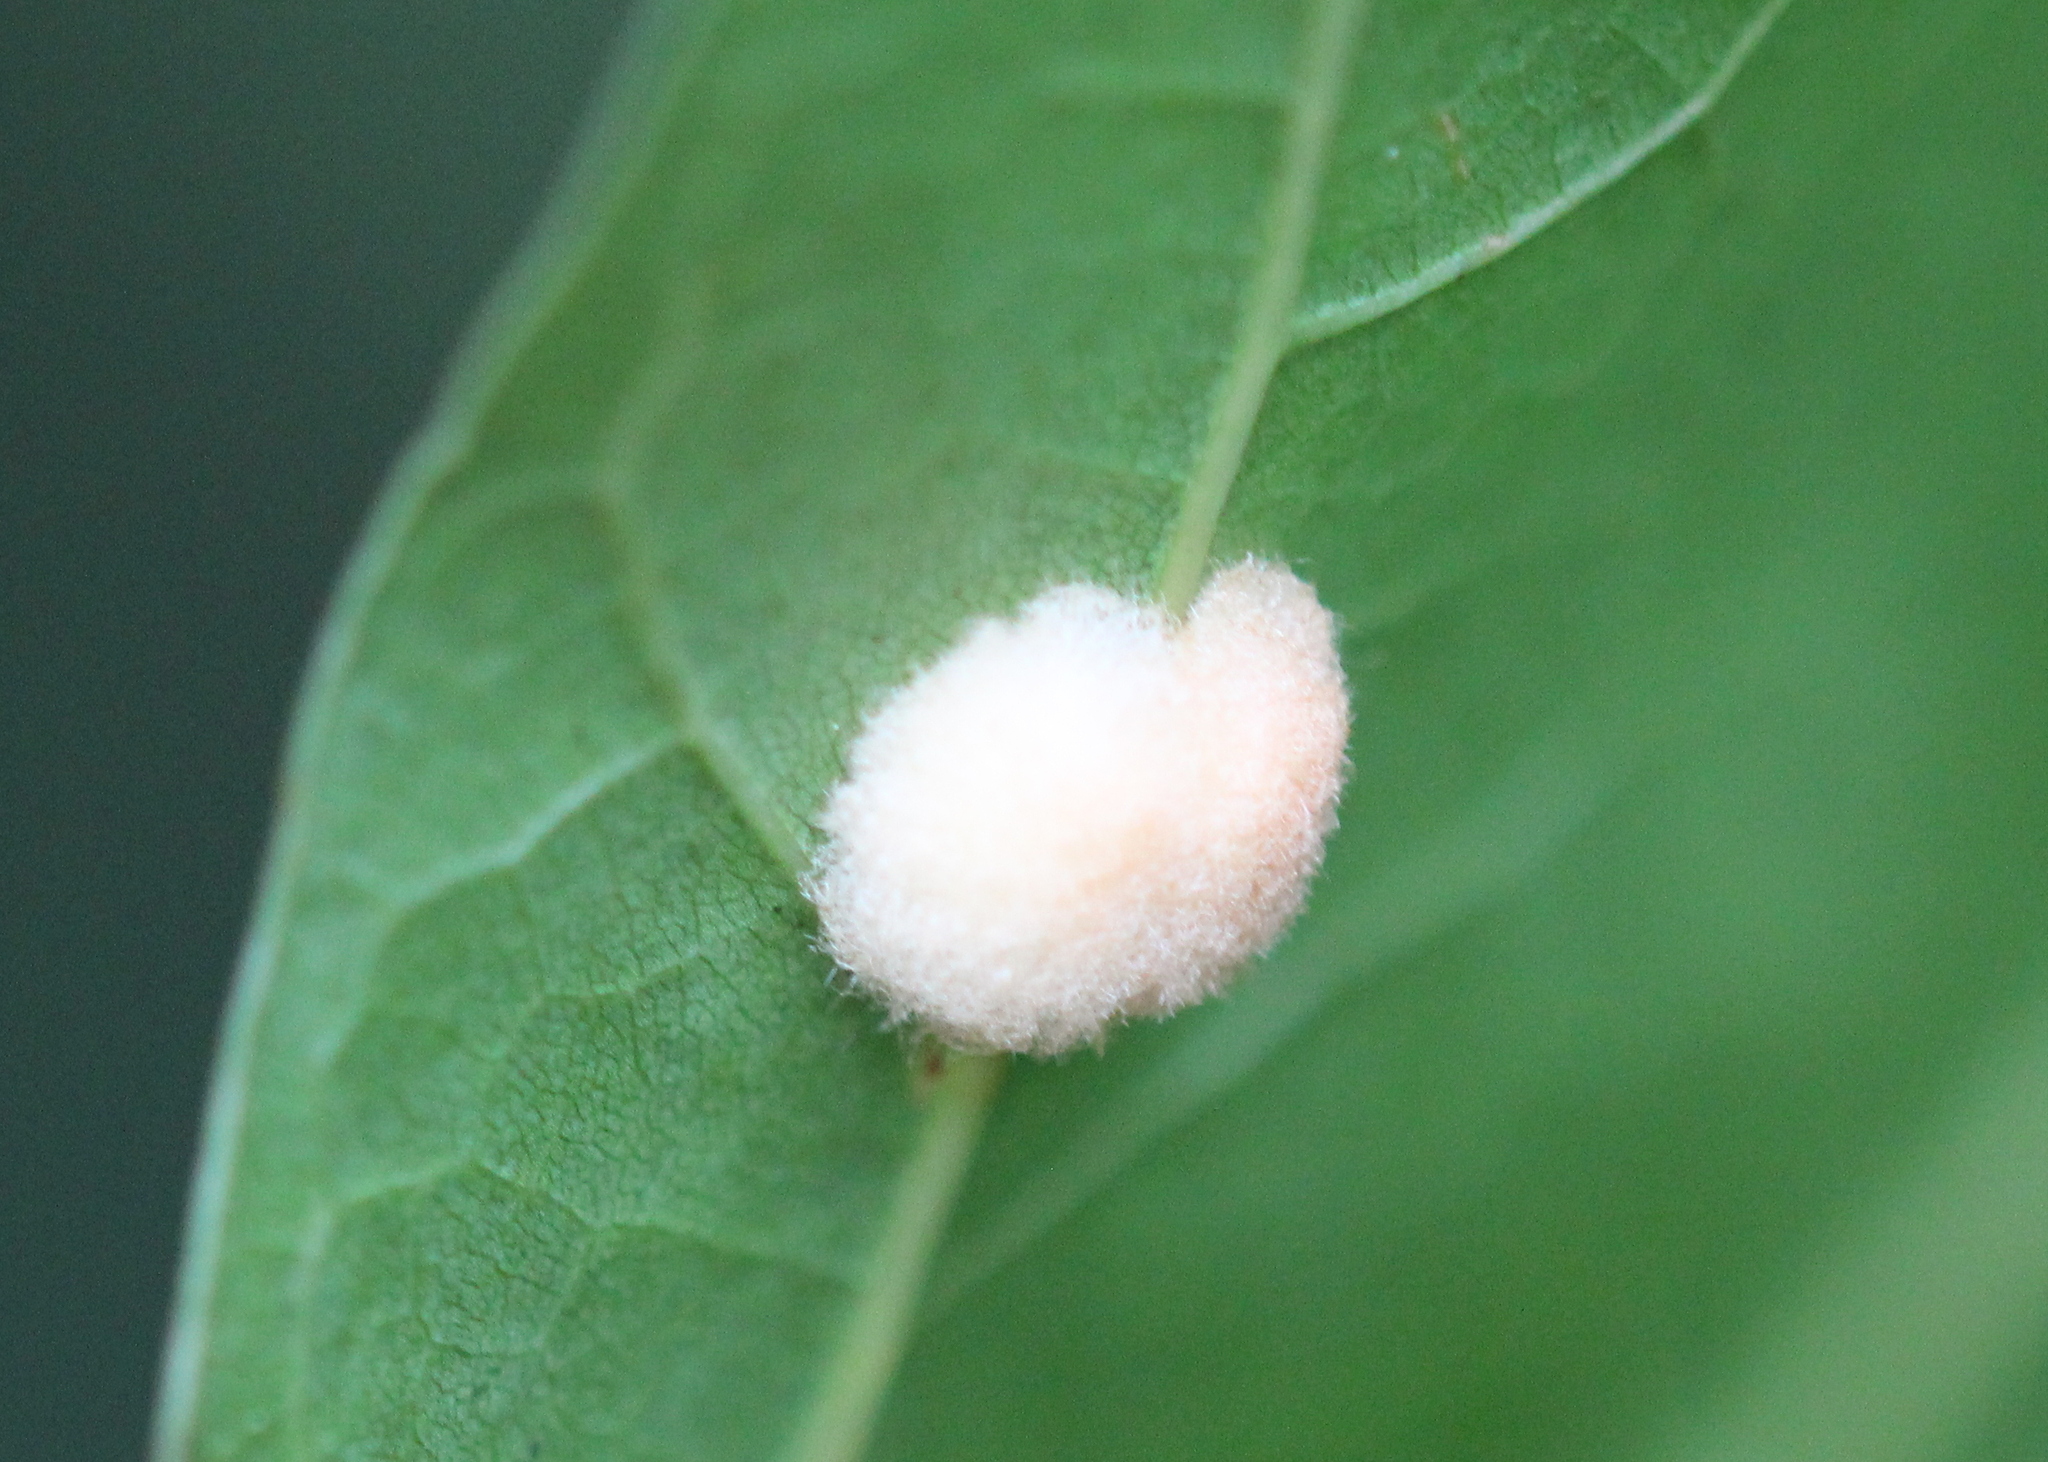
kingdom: Animalia
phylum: Arthropoda
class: Insecta
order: Hymenoptera
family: Cynipidae
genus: Callirhytis
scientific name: Callirhytis
